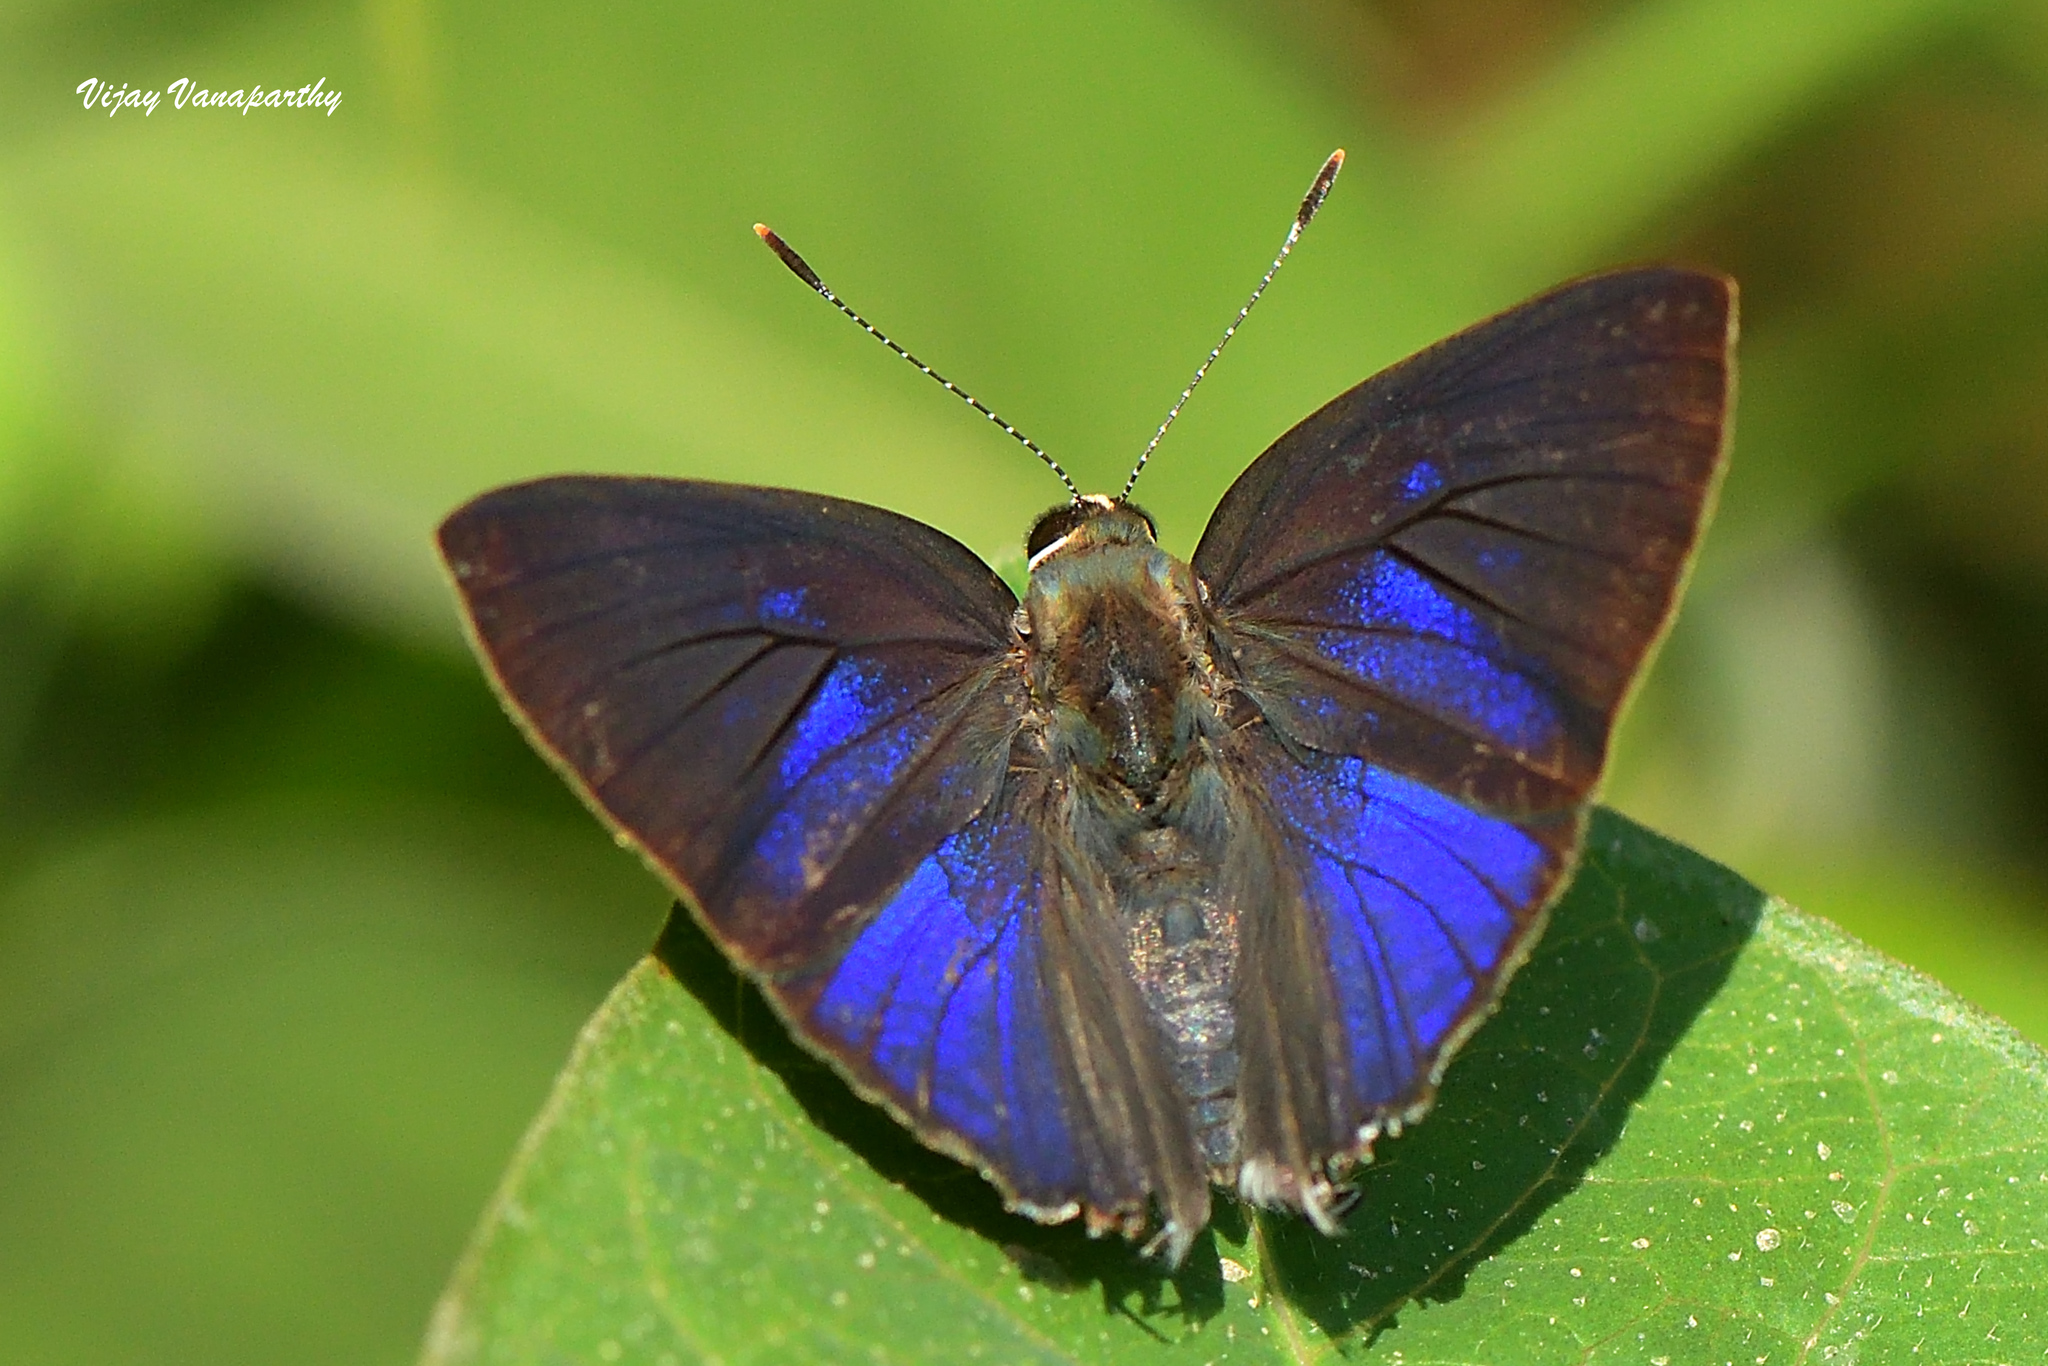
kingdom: Animalia
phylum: Arthropoda
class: Insecta
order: Lepidoptera
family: Lycaenidae
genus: Rapala
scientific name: Rapala manea
